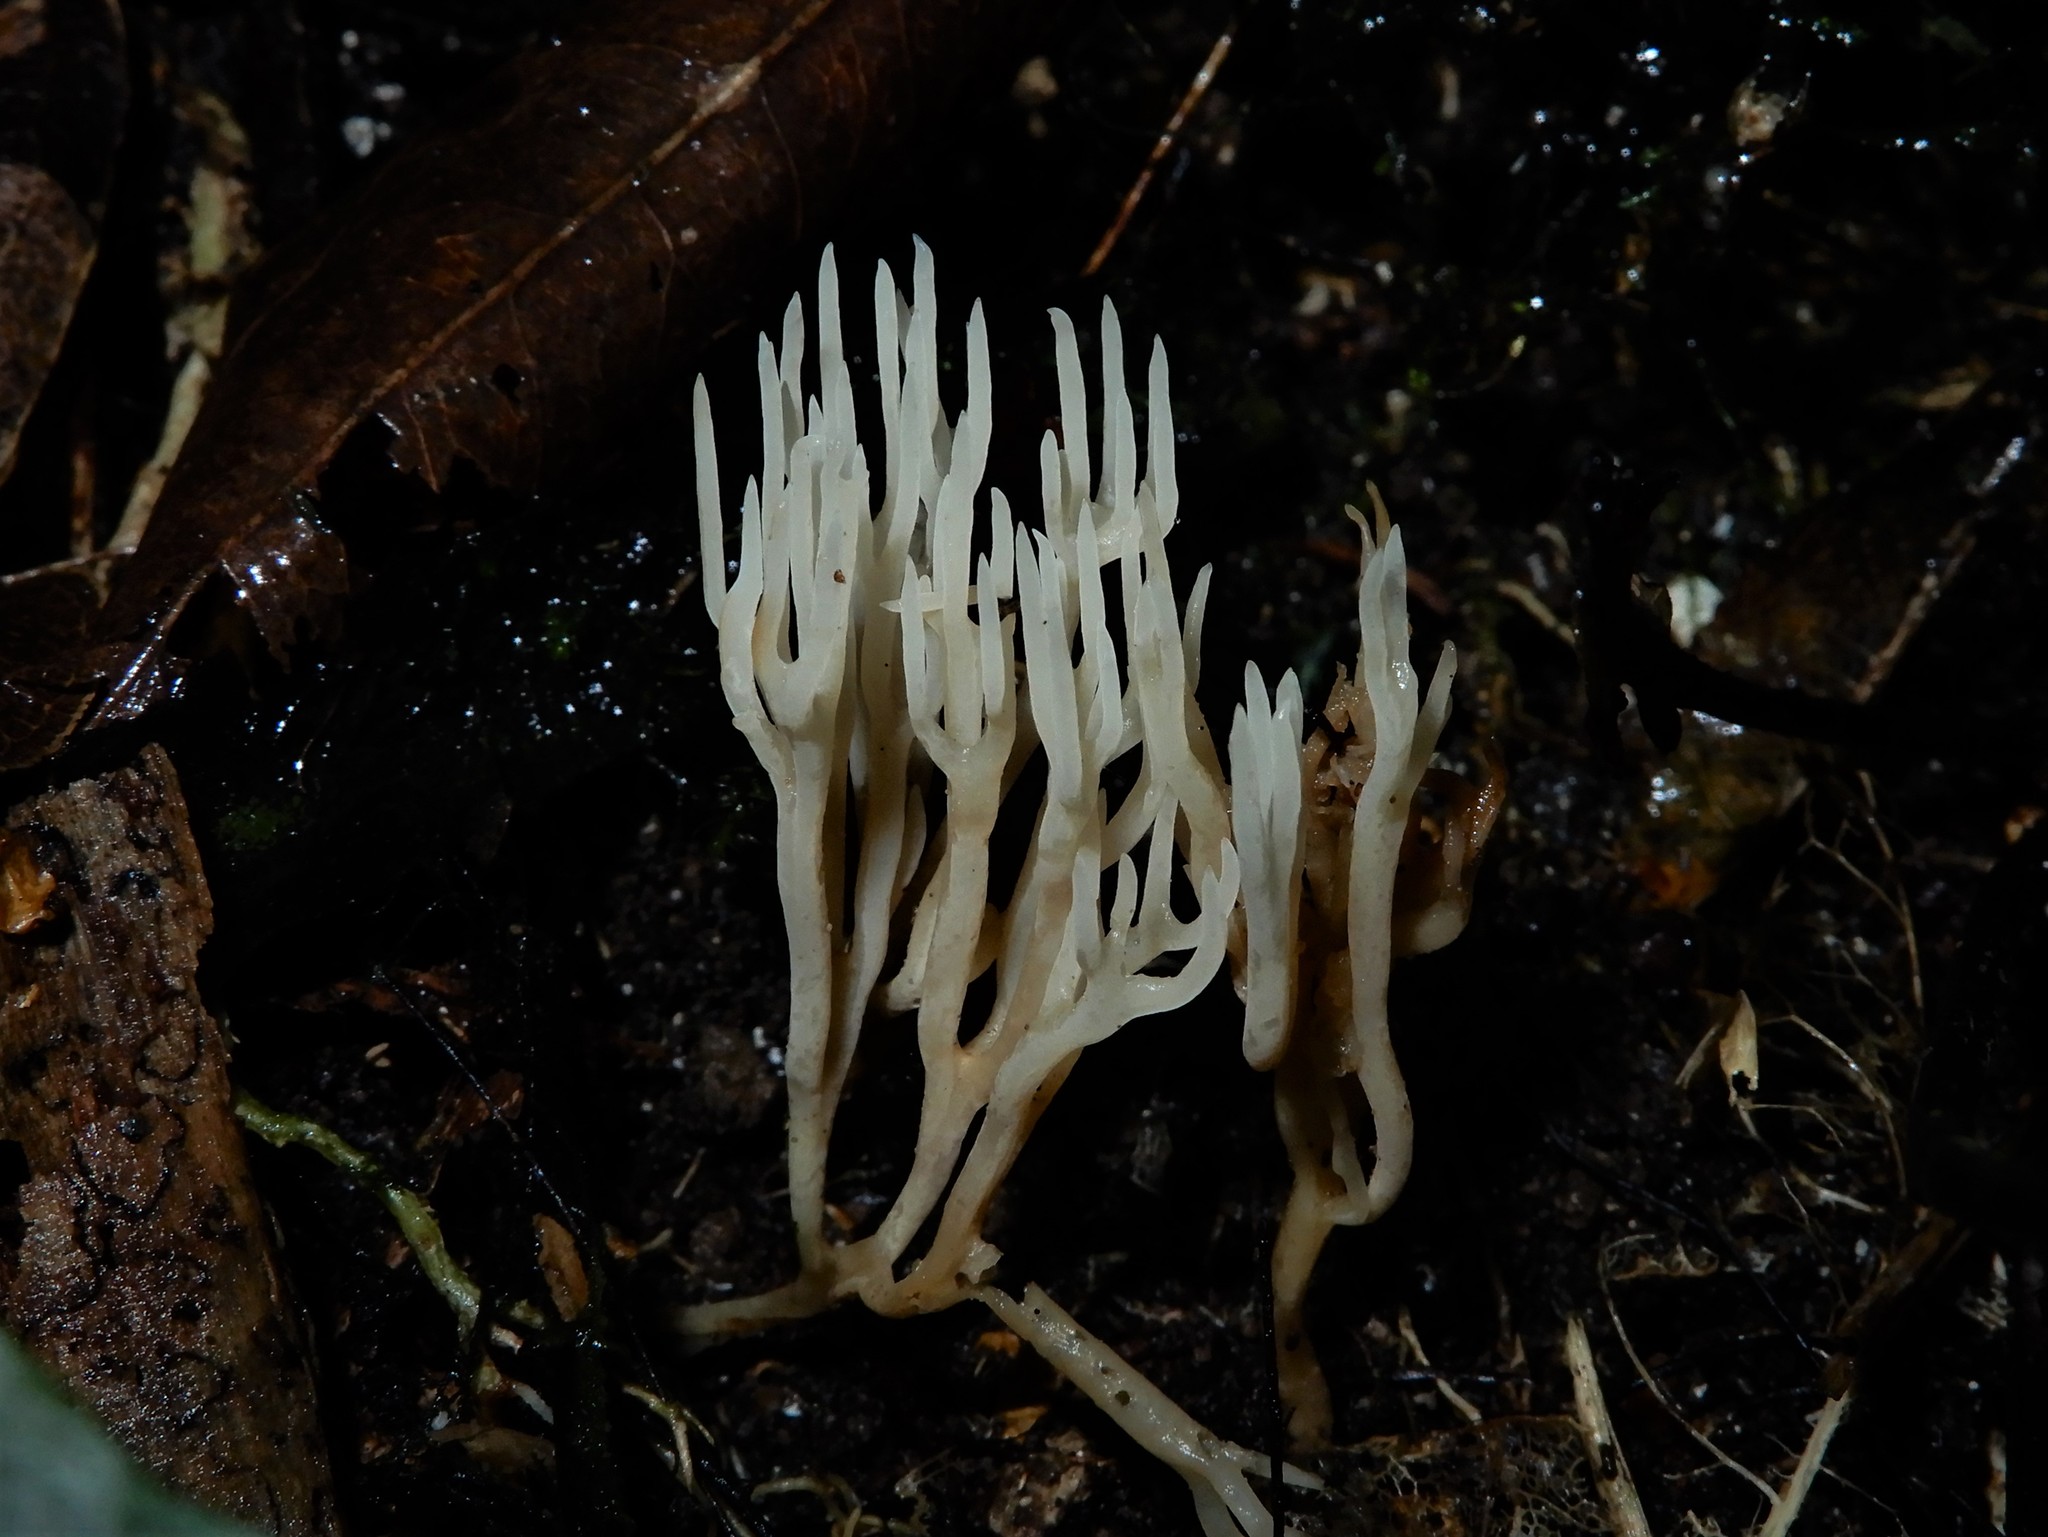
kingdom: Fungi
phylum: Basidiomycota
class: Agaricomycetes
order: Agaricales
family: Clavariaceae
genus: Ramariopsis
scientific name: Ramariopsis
